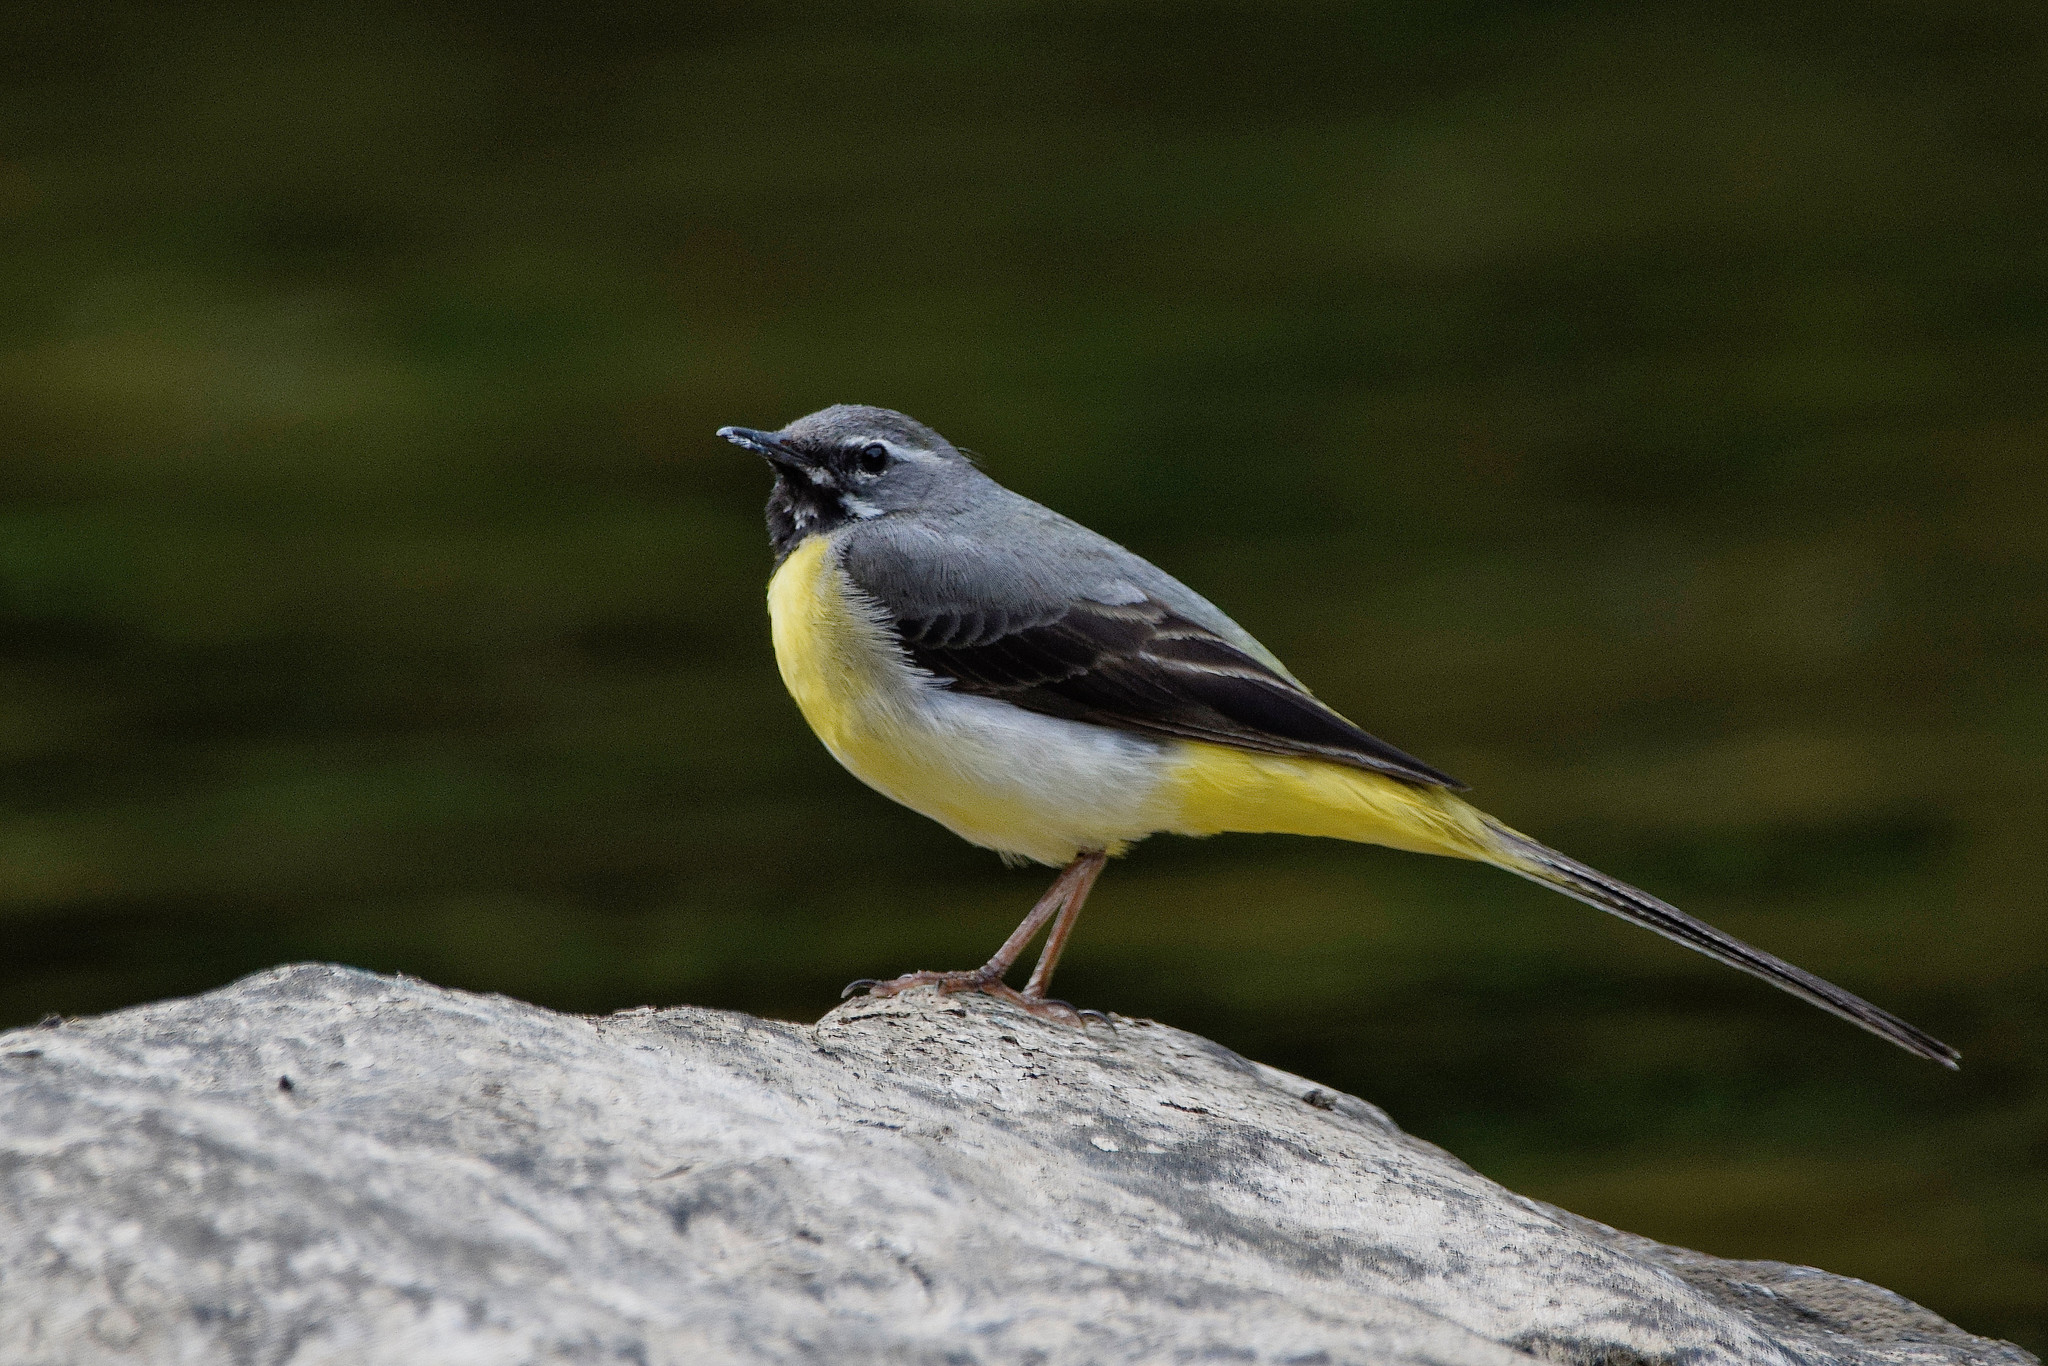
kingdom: Animalia
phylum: Chordata
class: Aves
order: Passeriformes
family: Motacillidae
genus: Motacilla
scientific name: Motacilla cinerea
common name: Grey wagtail
